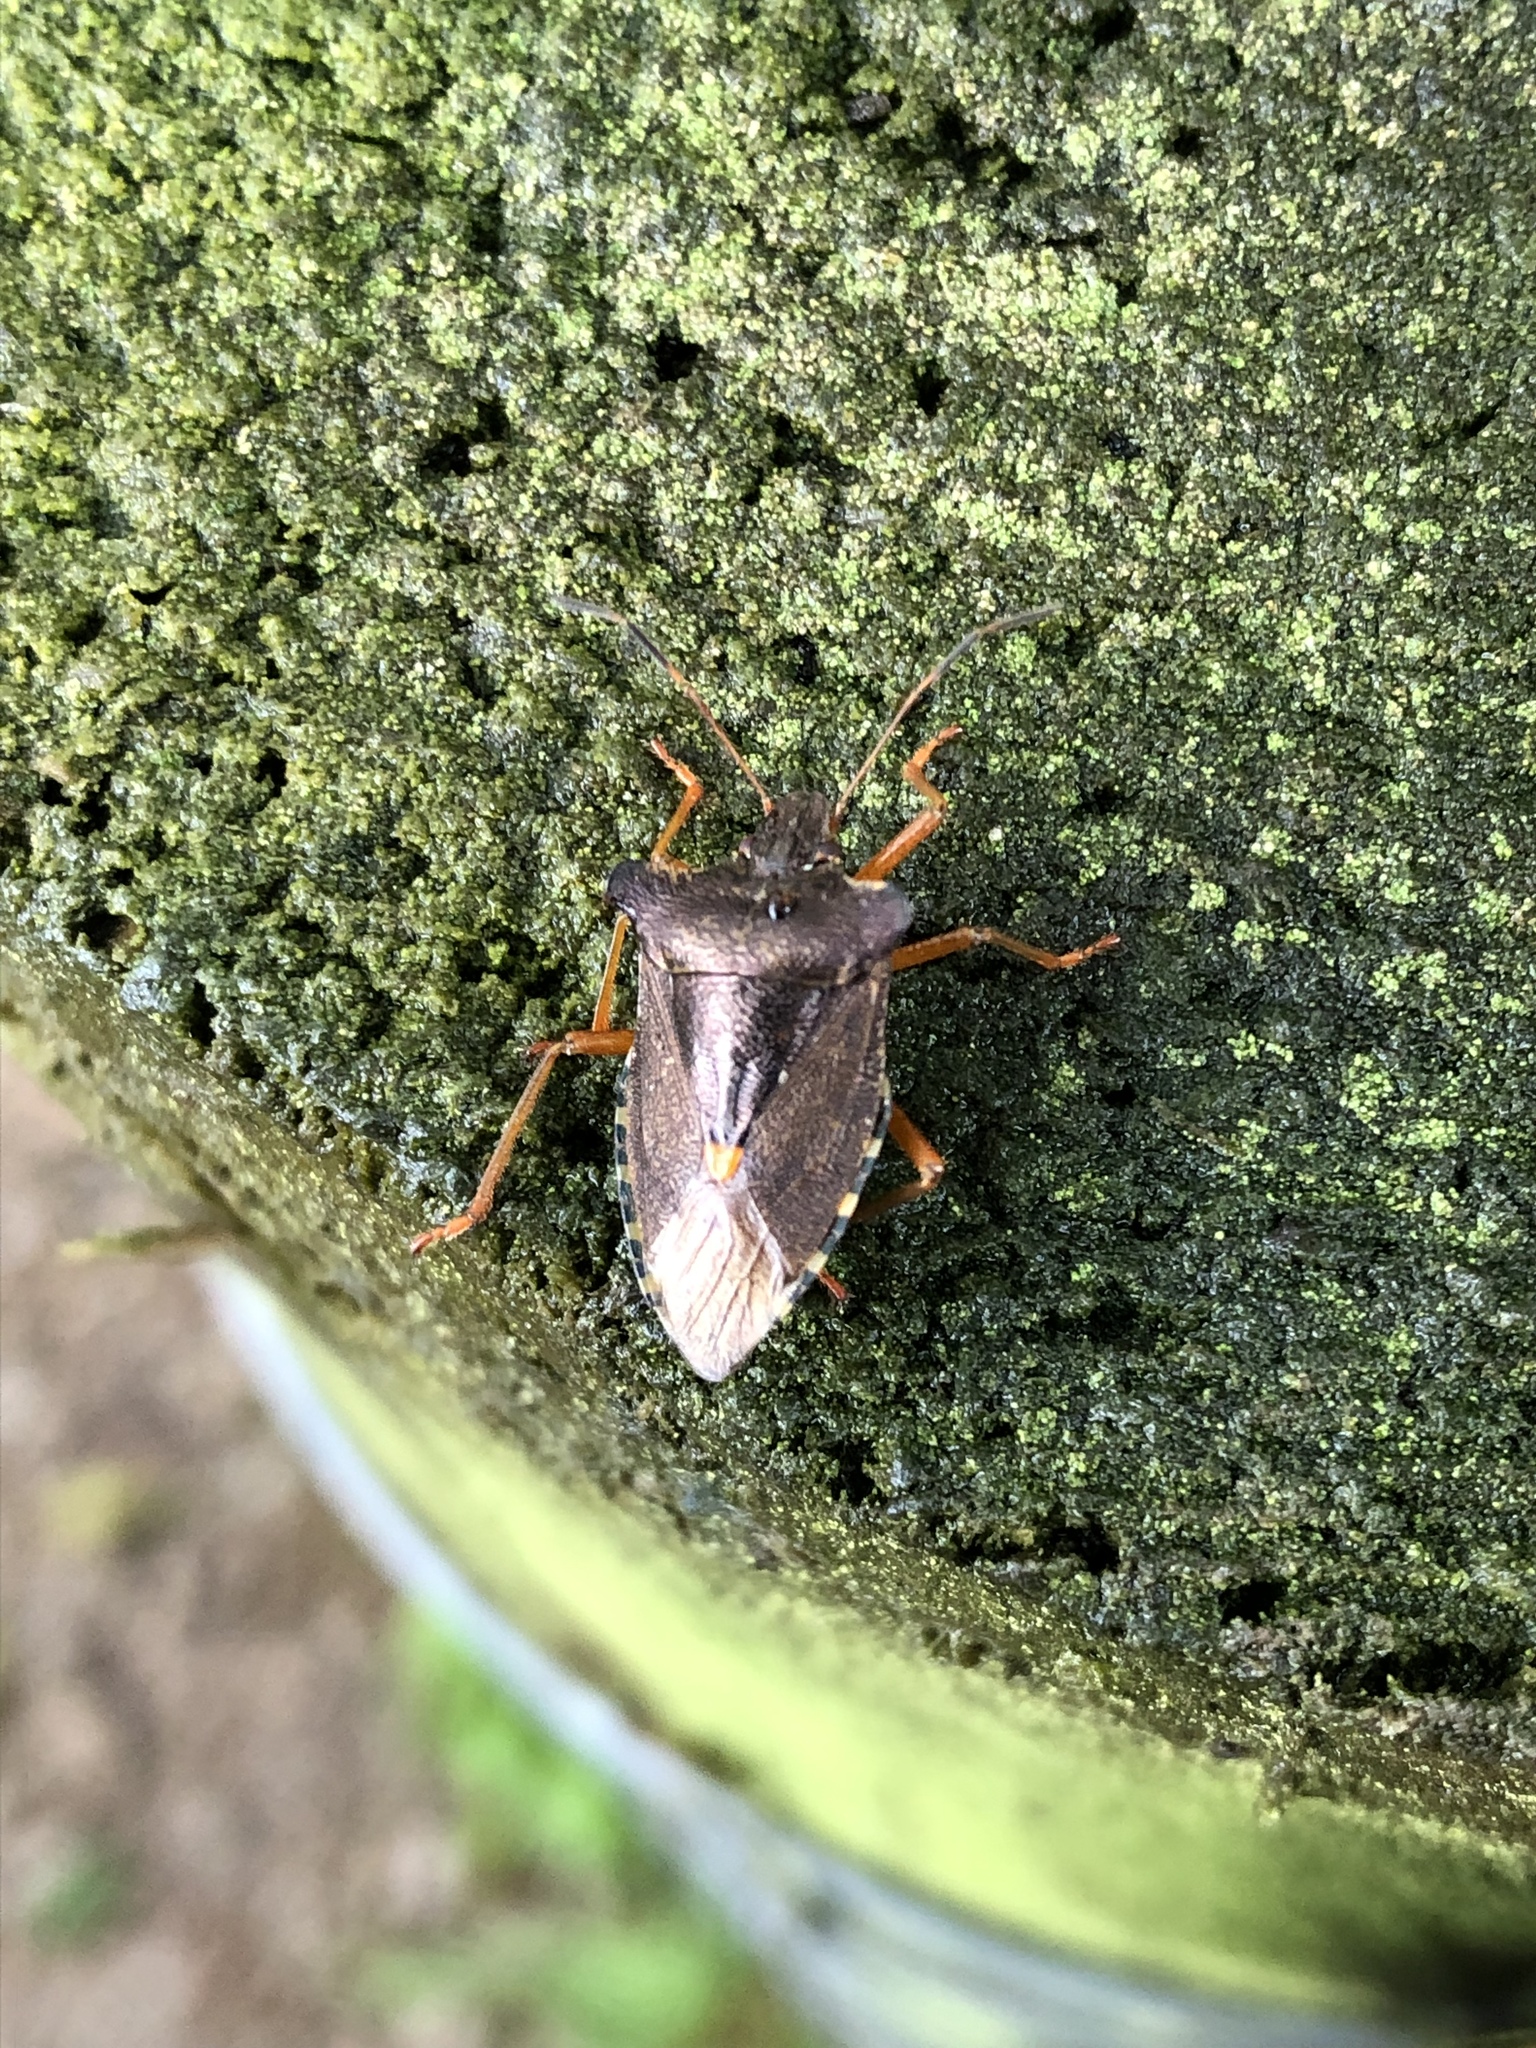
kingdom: Animalia
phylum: Arthropoda
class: Insecta
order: Hemiptera
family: Pentatomidae
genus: Pentatoma
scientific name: Pentatoma rufipes
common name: Forest bug
